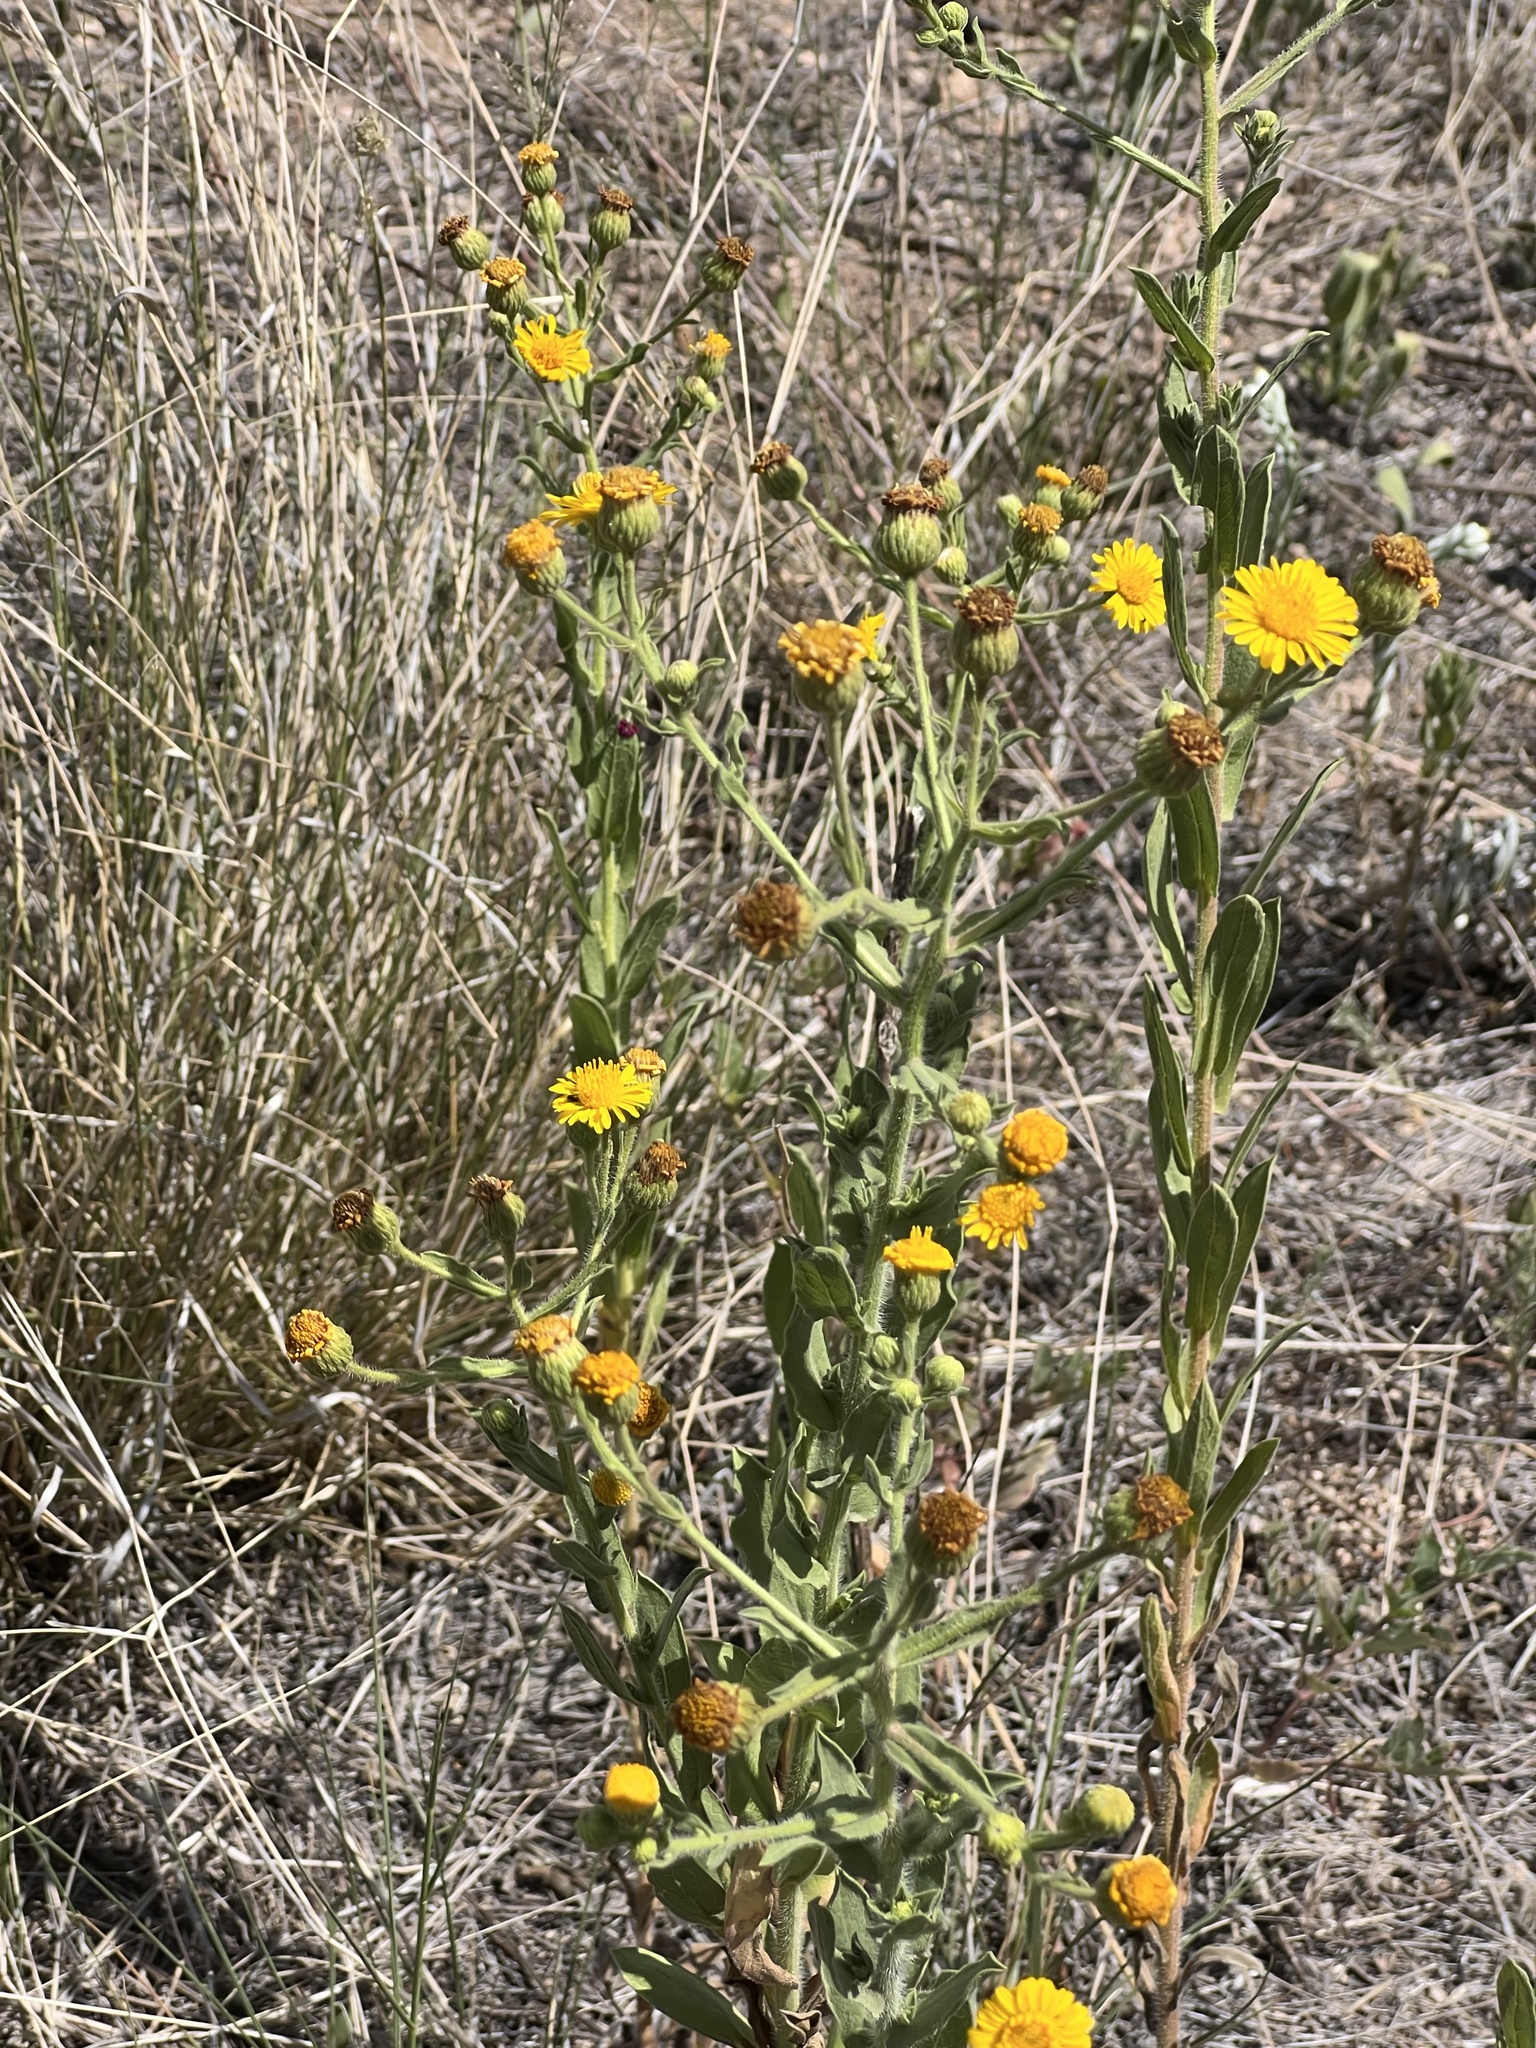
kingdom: Plantae
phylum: Tracheophyta
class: Magnoliopsida
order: Asterales
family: Asteraceae
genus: Heterotheca
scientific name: Heterotheca grandiflora
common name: Telegraphweed
